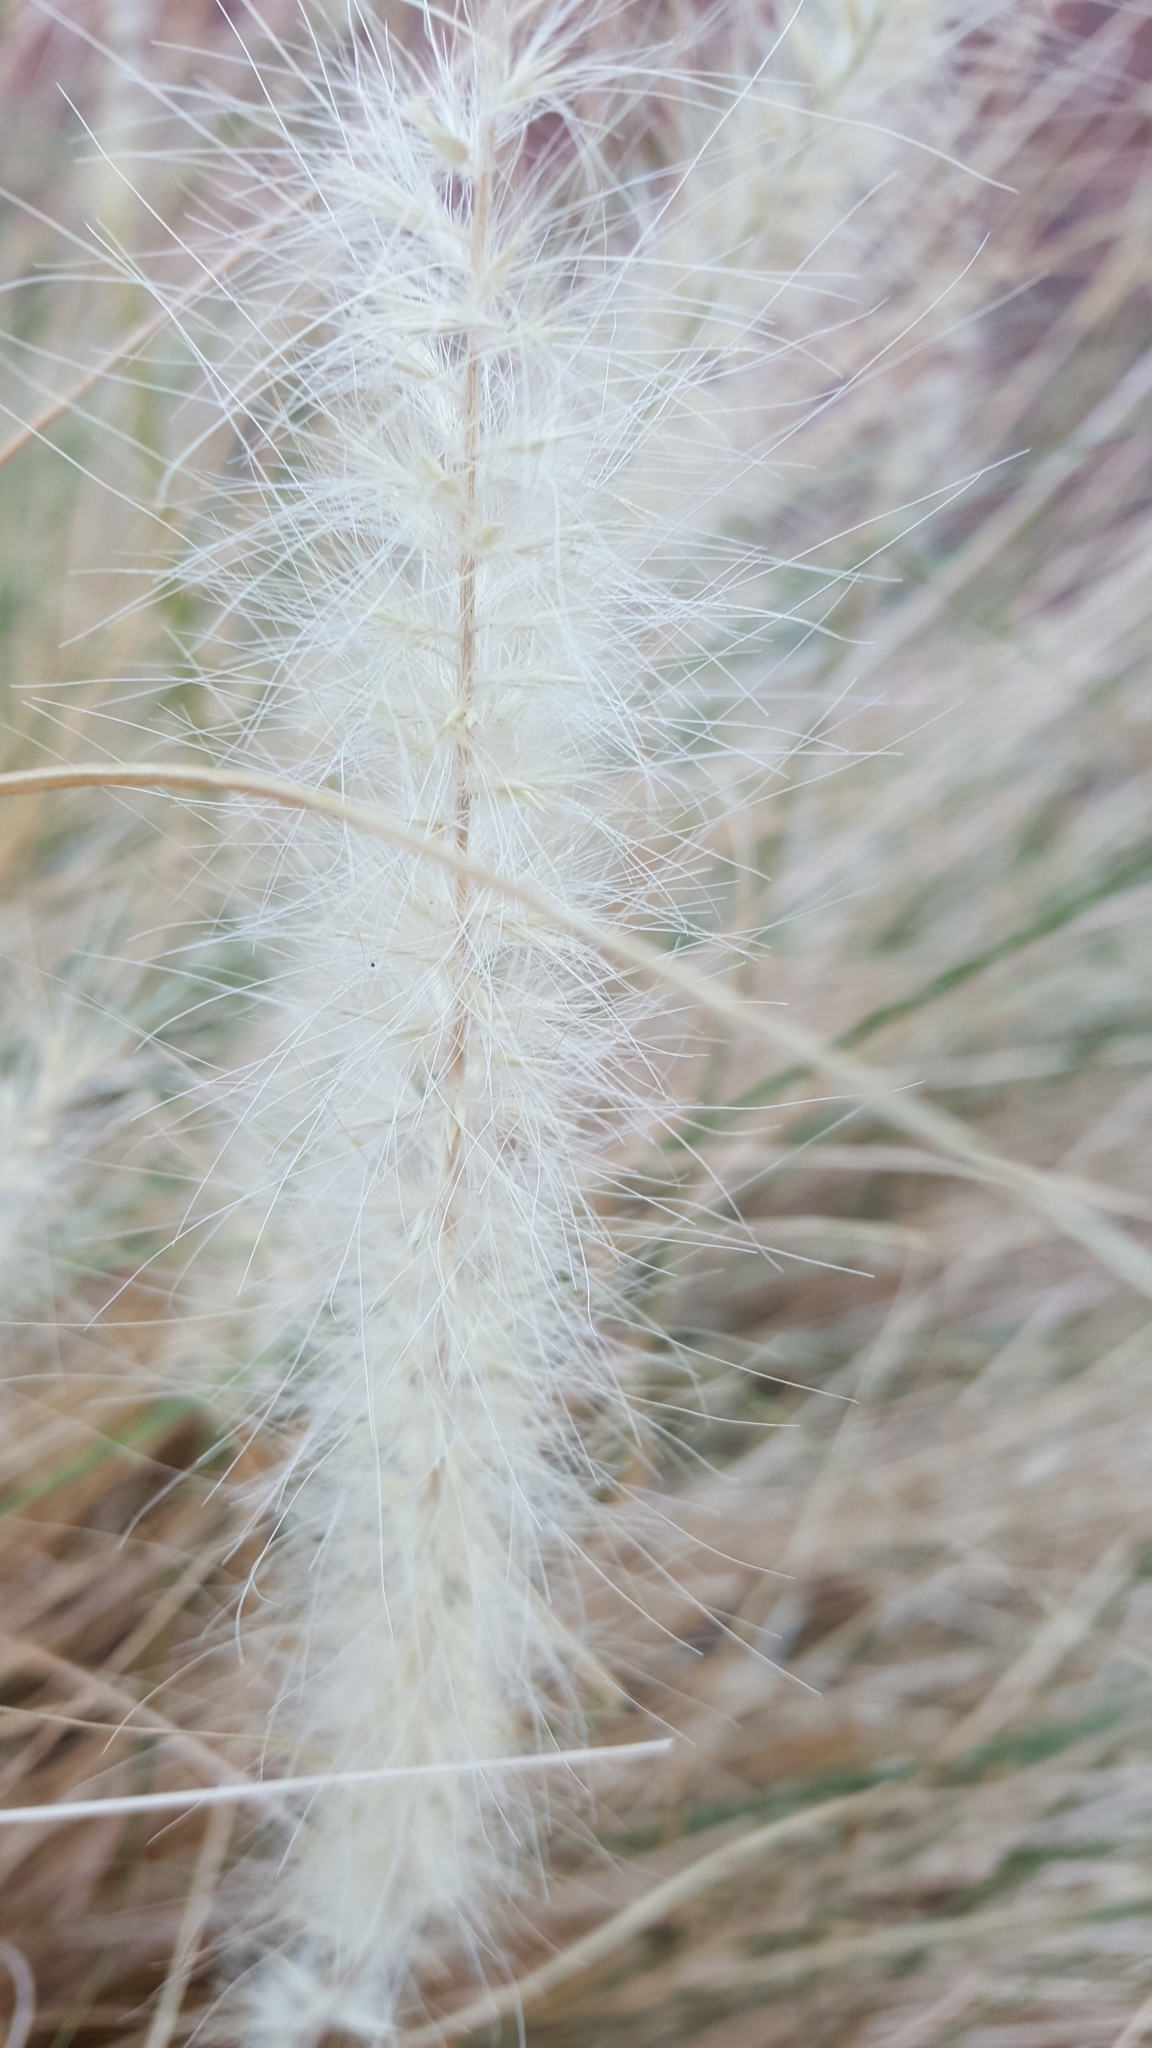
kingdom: Plantae
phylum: Tracheophyta
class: Liliopsida
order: Poales
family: Poaceae
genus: Cenchrus
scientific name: Cenchrus setaceus
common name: Crimson fountaingrass
